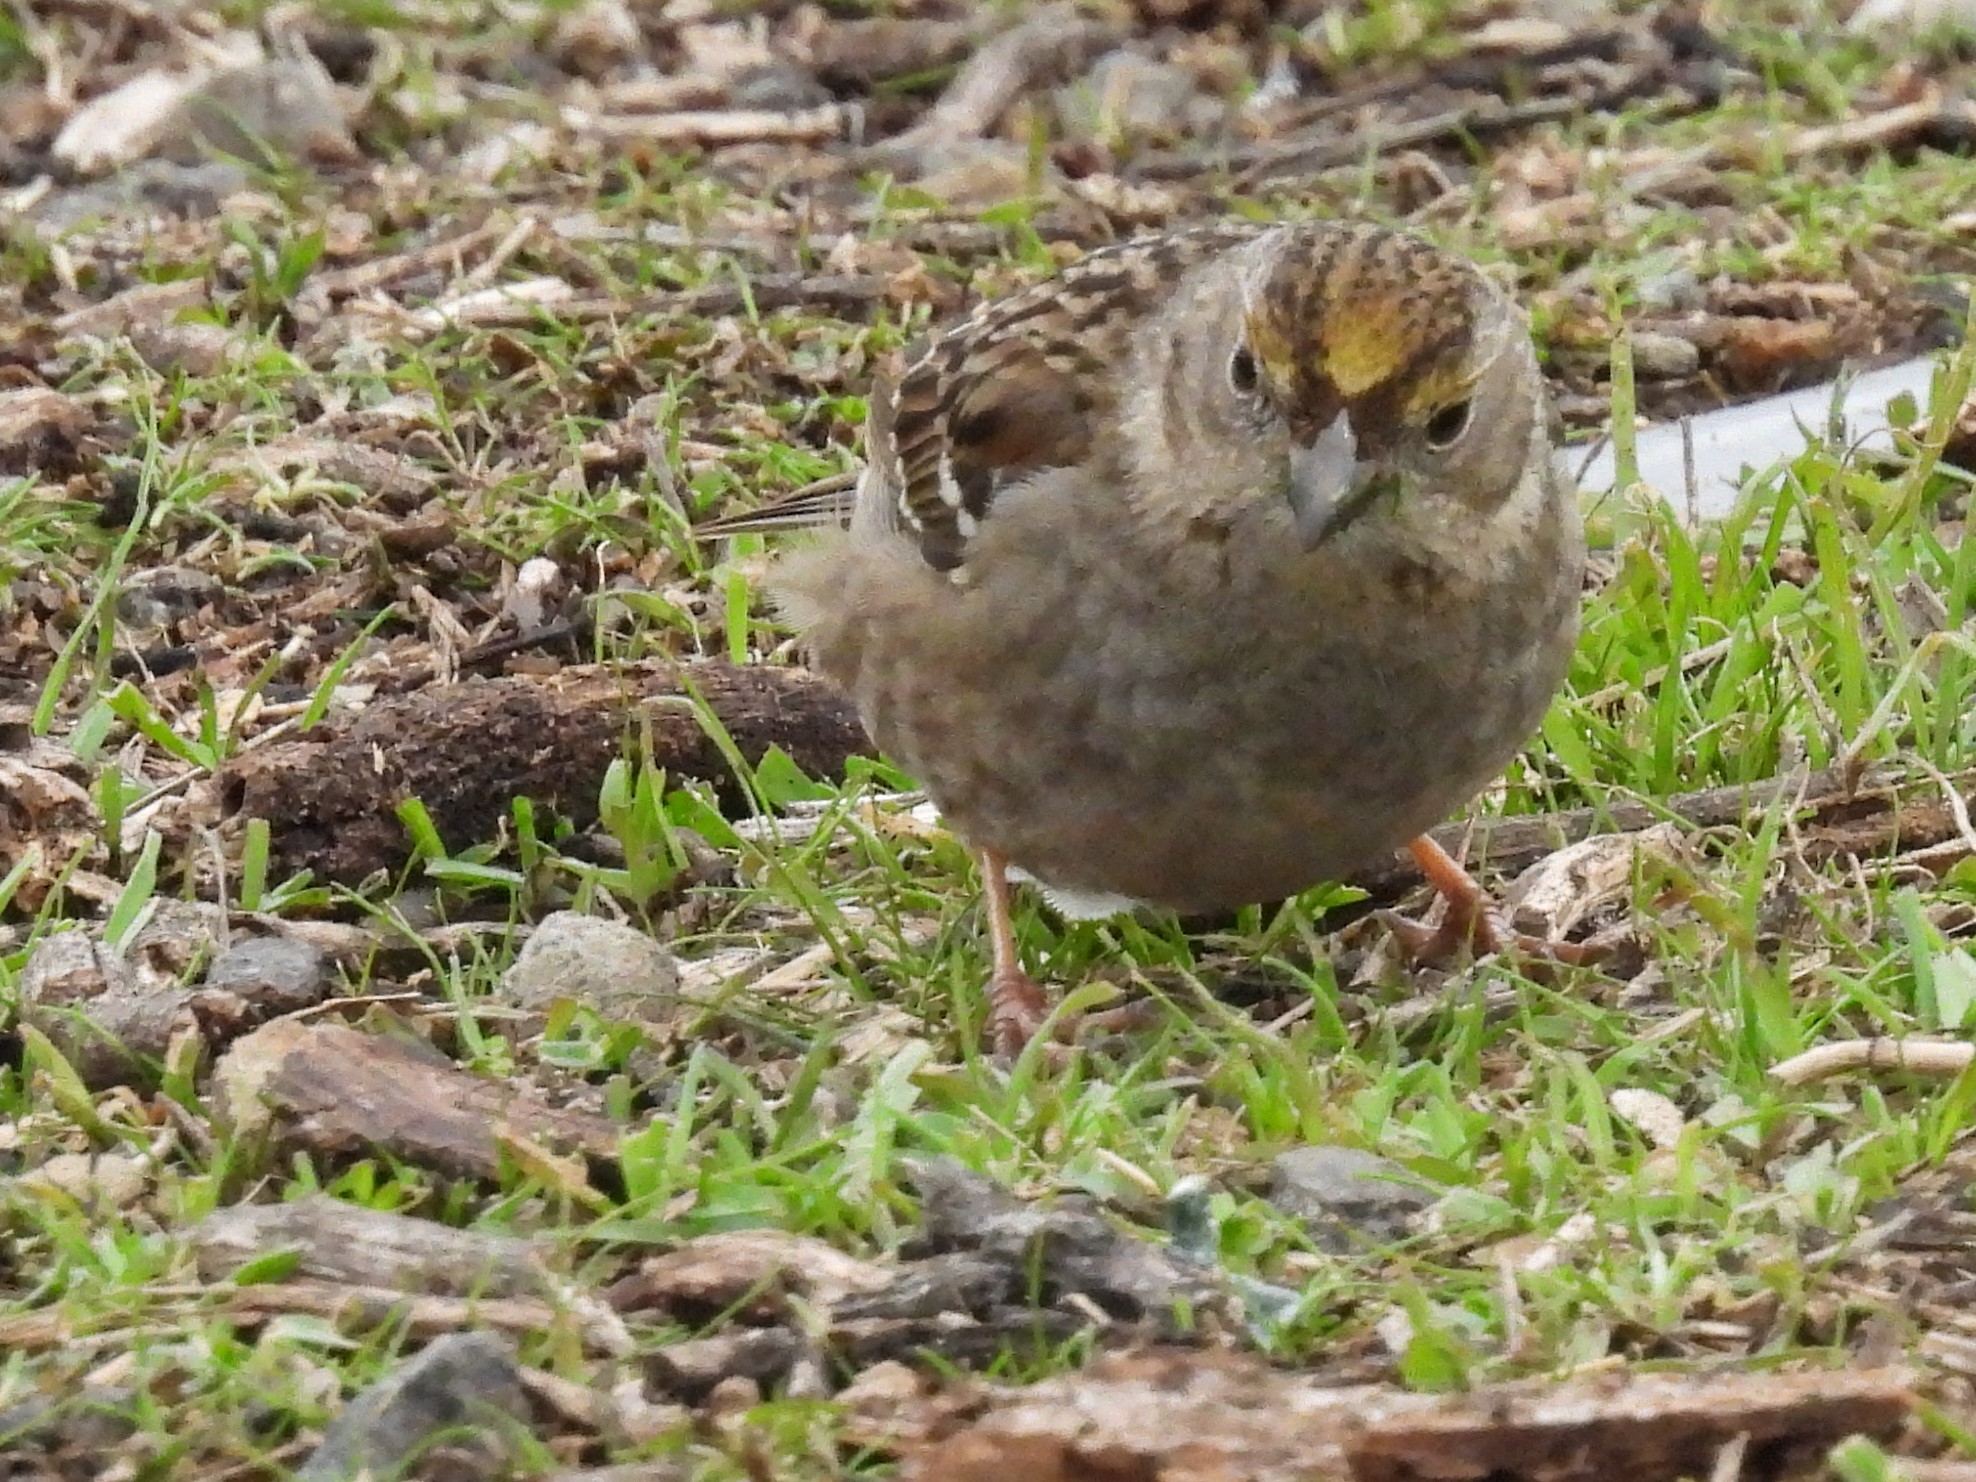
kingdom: Animalia
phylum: Chordata
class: Aves
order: Passeriformes
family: Passerellidae
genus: Zonotrichia
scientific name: Zonotrichia atricapilla
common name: Golden-crowned sparrow
